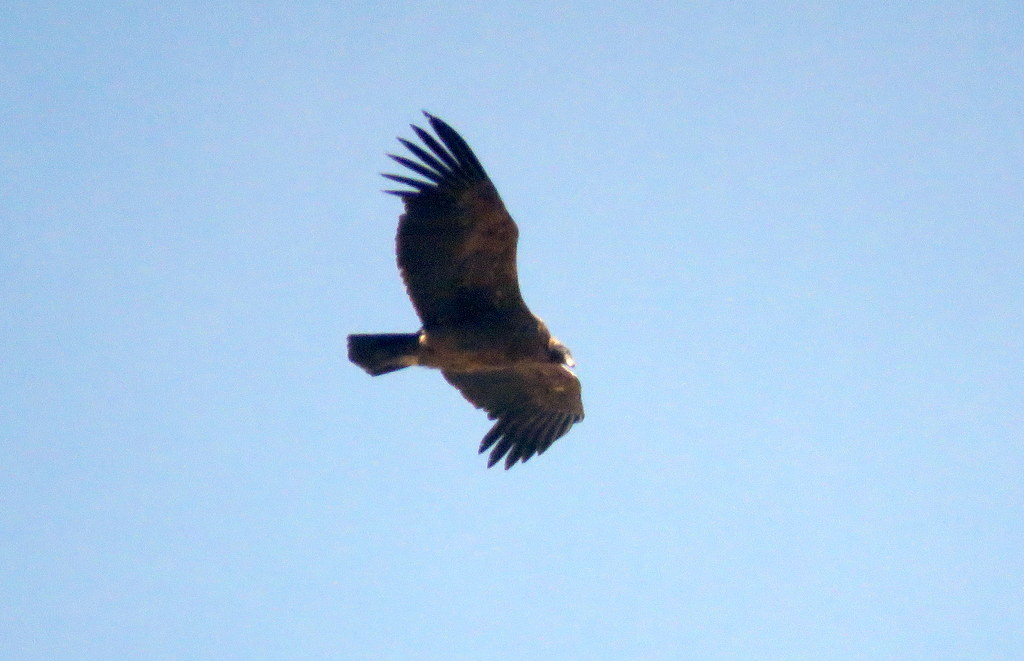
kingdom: Animalia
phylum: Chordata
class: Aves
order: Accipitriformes
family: Cathartidae
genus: Vultur
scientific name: Vultur gryphus
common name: Andean condor
